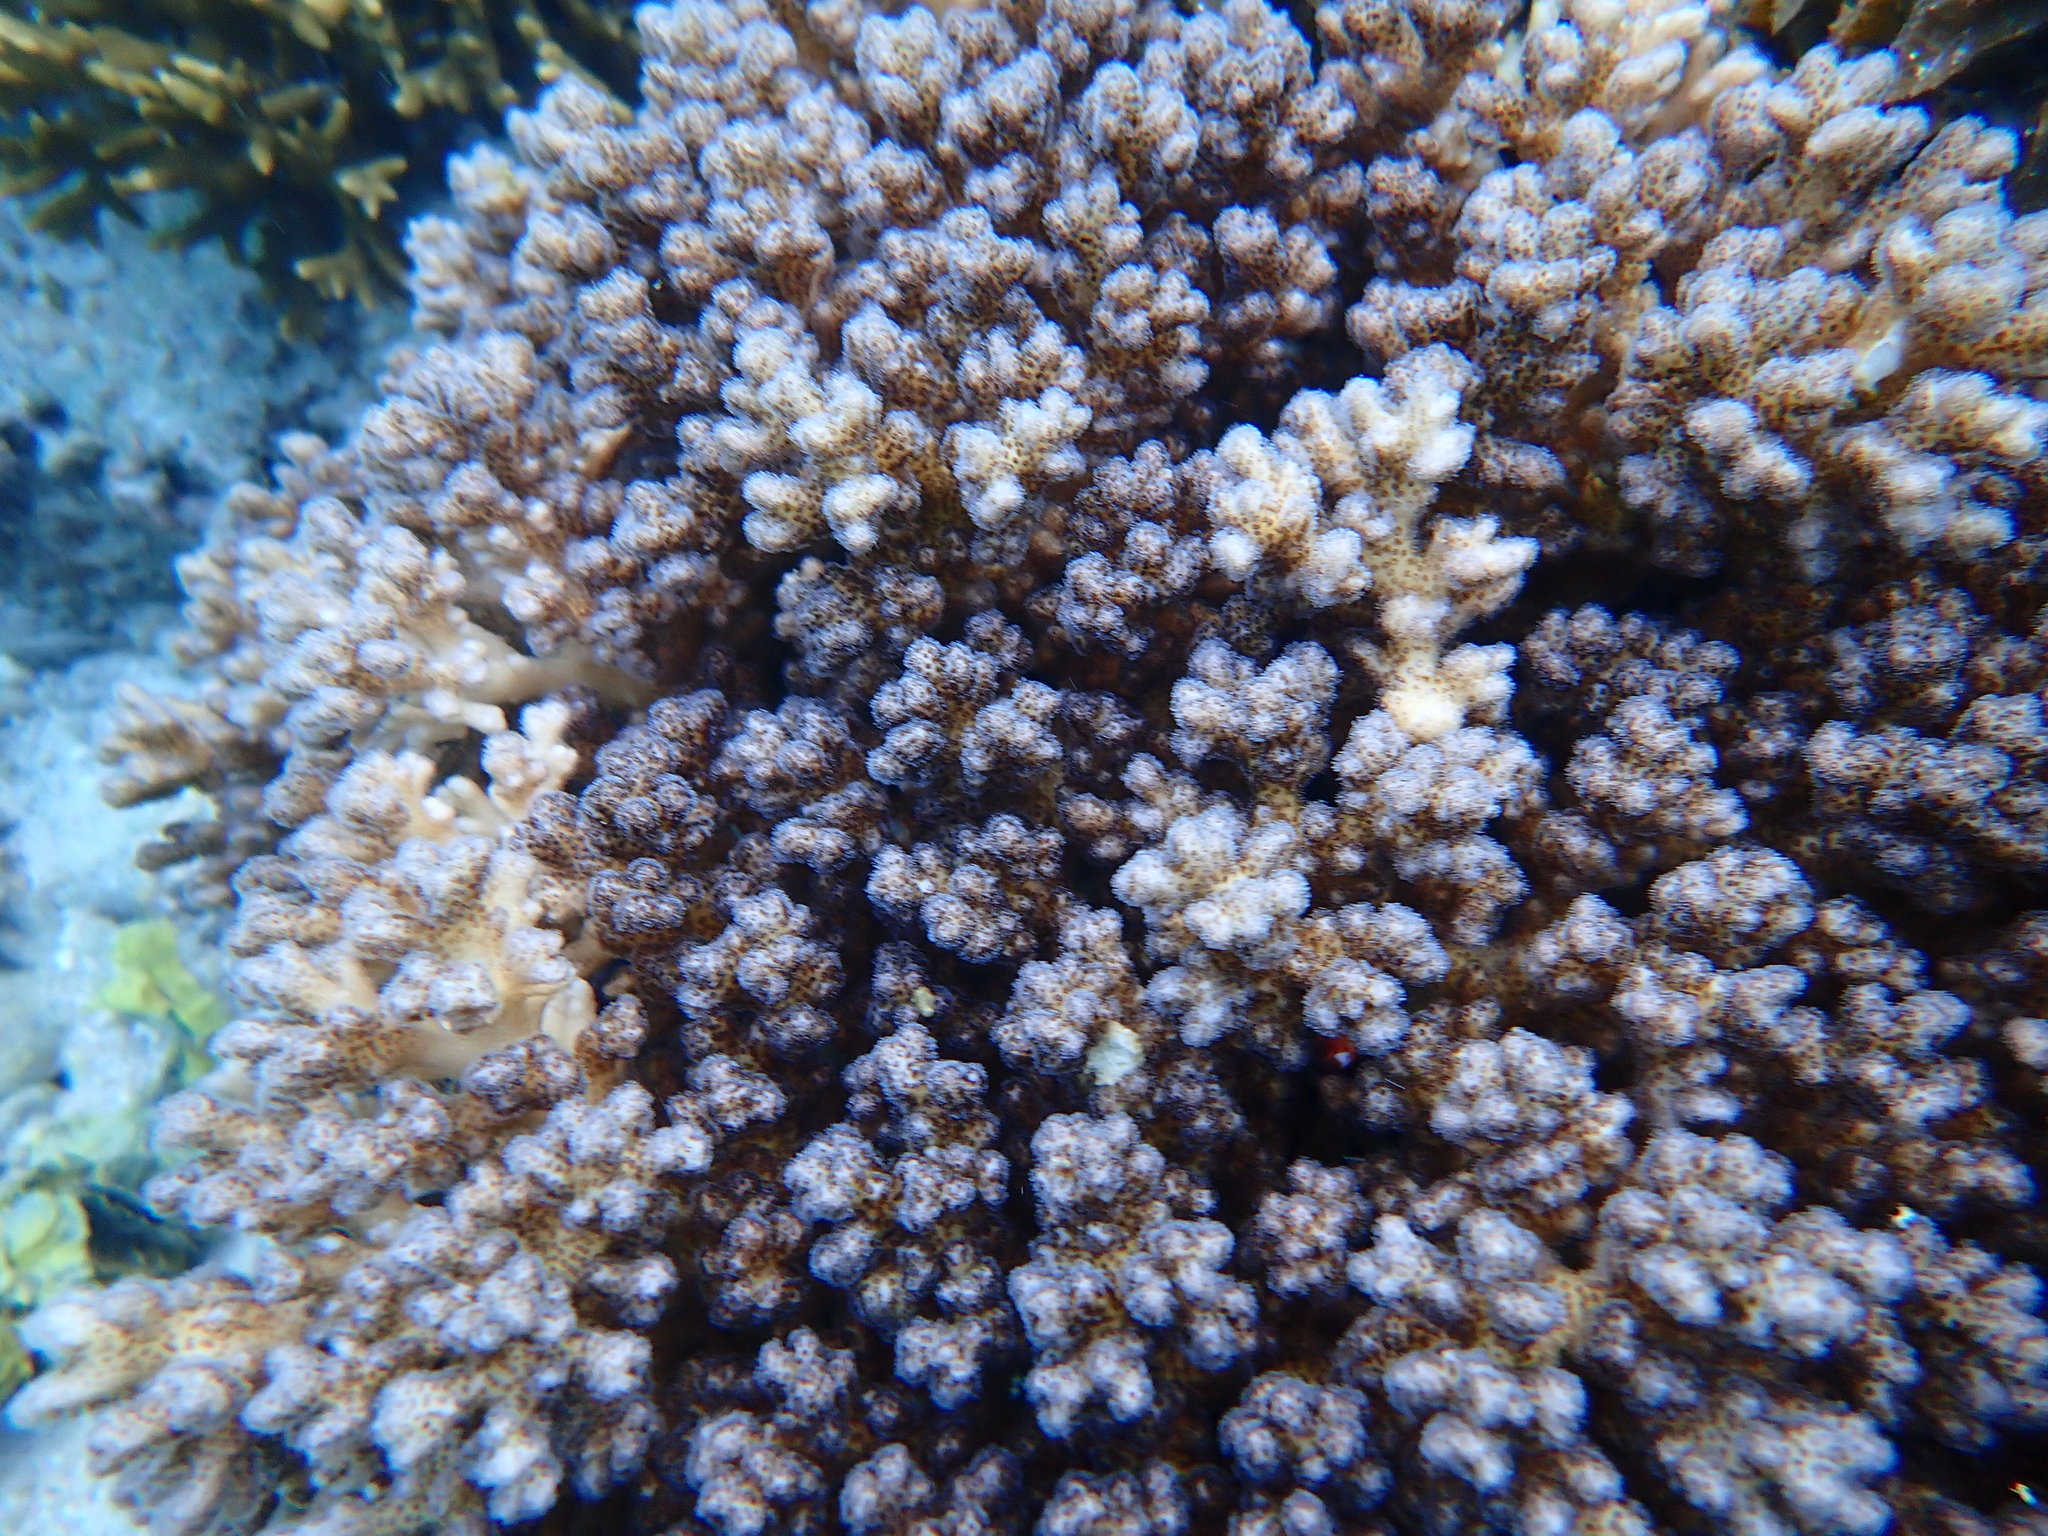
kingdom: Animalia
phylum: Cnidaria
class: Anthozoa
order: Scleractinia
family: Pocilloporidae
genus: Pocillopora
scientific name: Pocillopora damicornis
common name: Cauliflower coral
